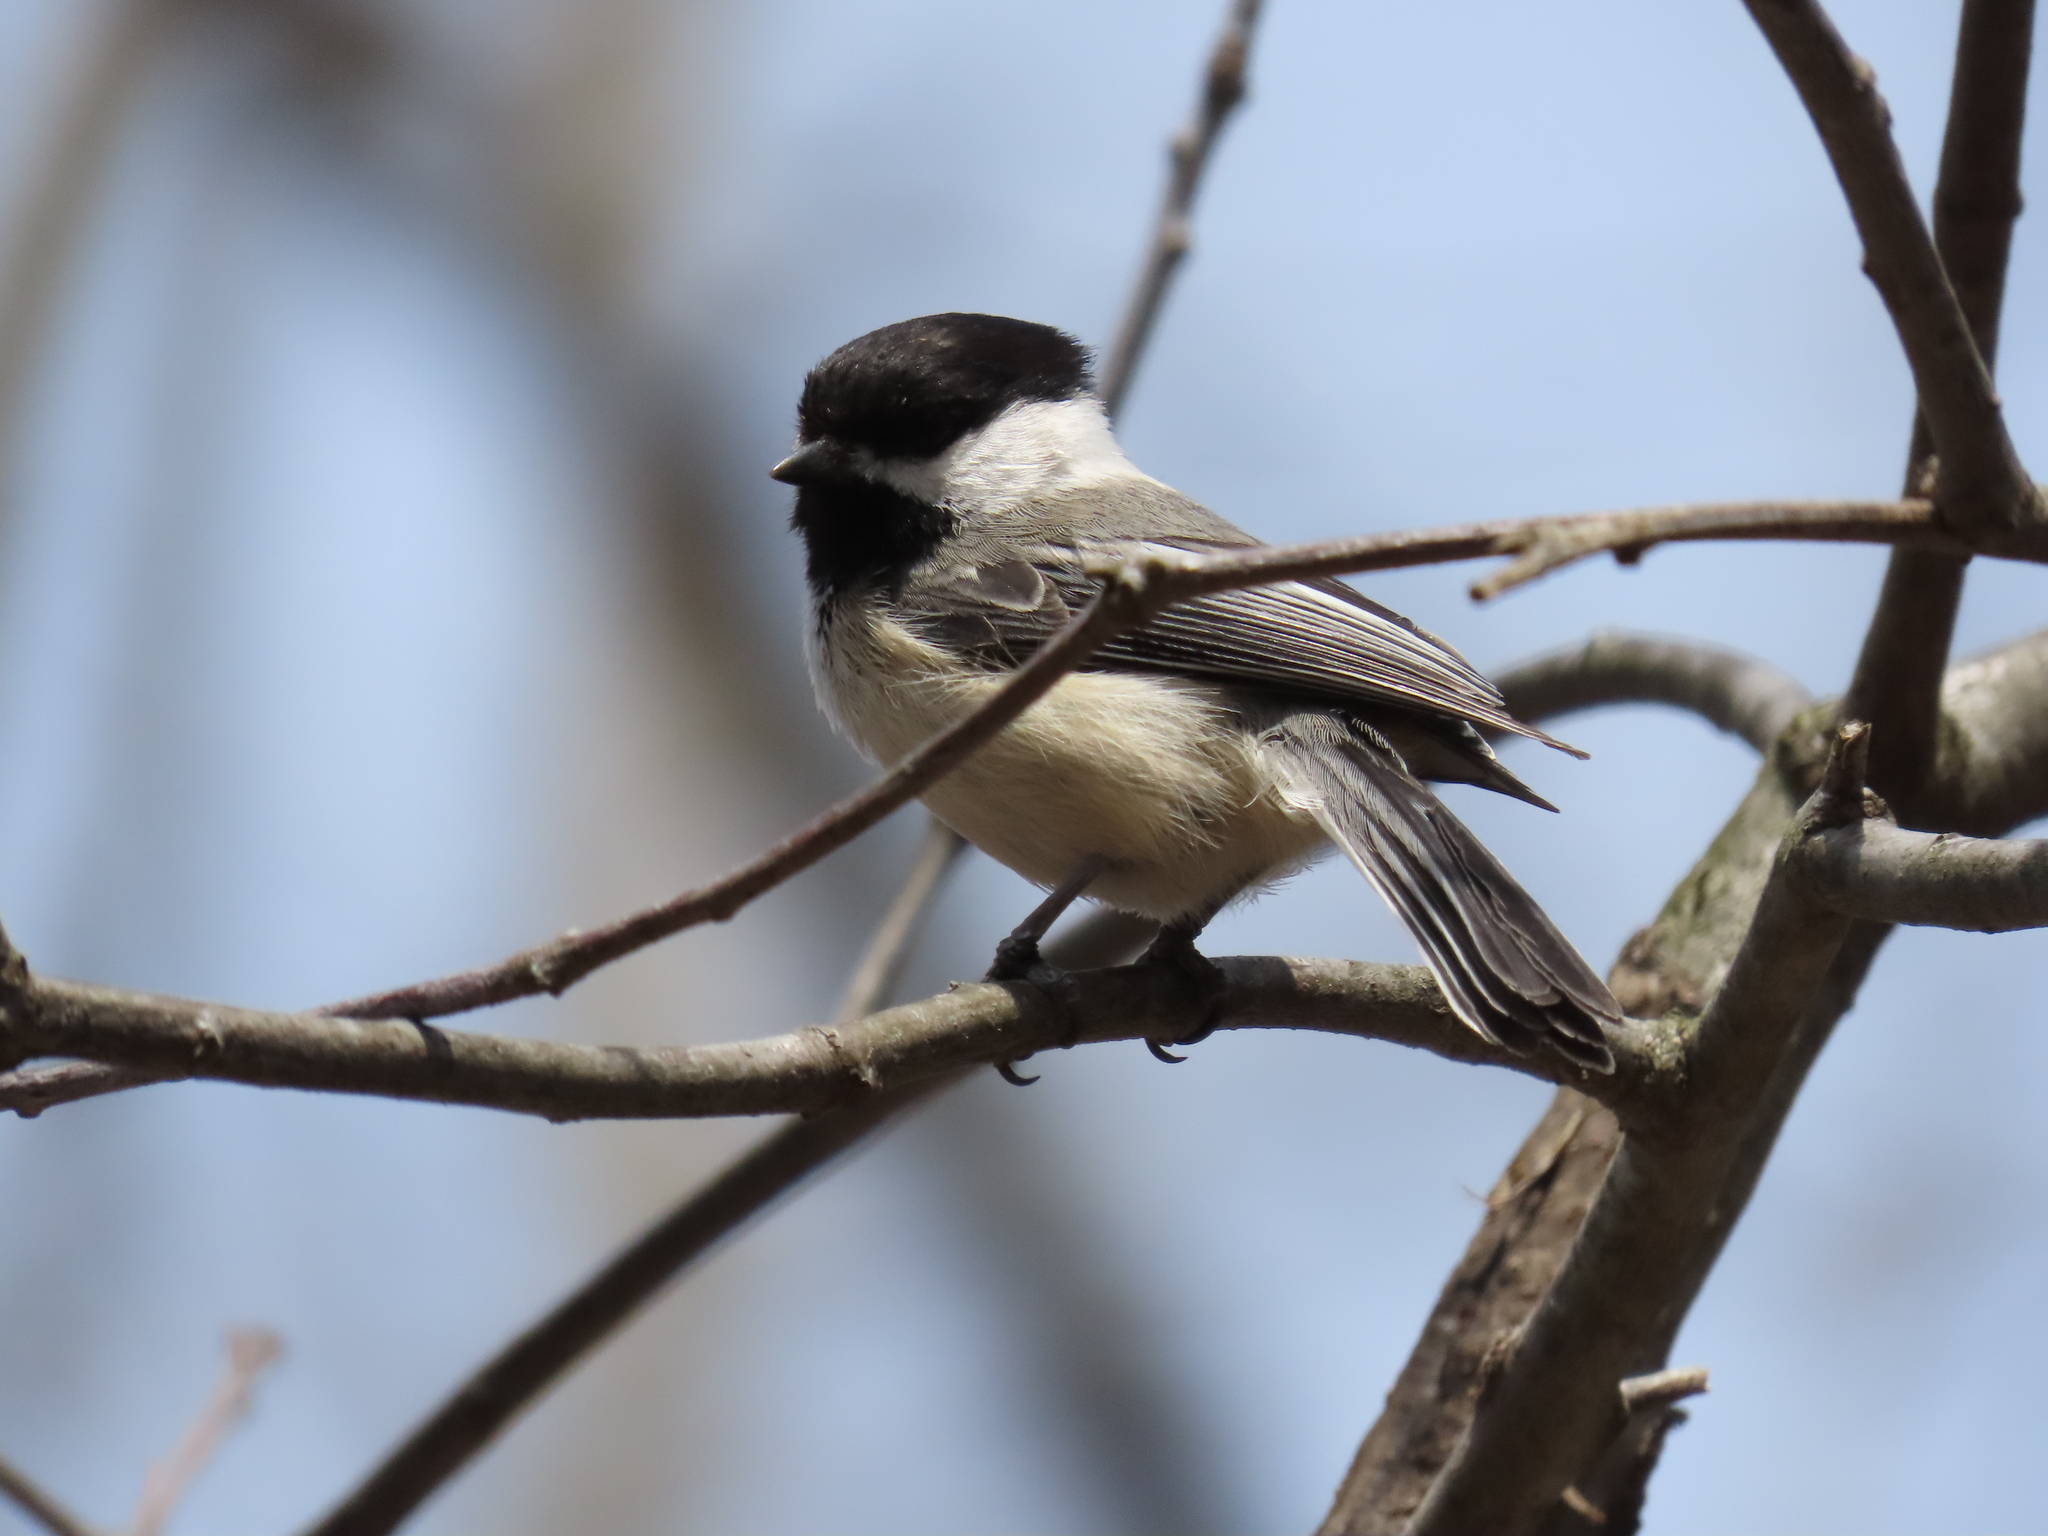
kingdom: Animalia
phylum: Chordata
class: Aves
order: Passeriformes
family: Paridae
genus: Poecile
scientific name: Poecile atricapillus
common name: Black-capped chickadee
